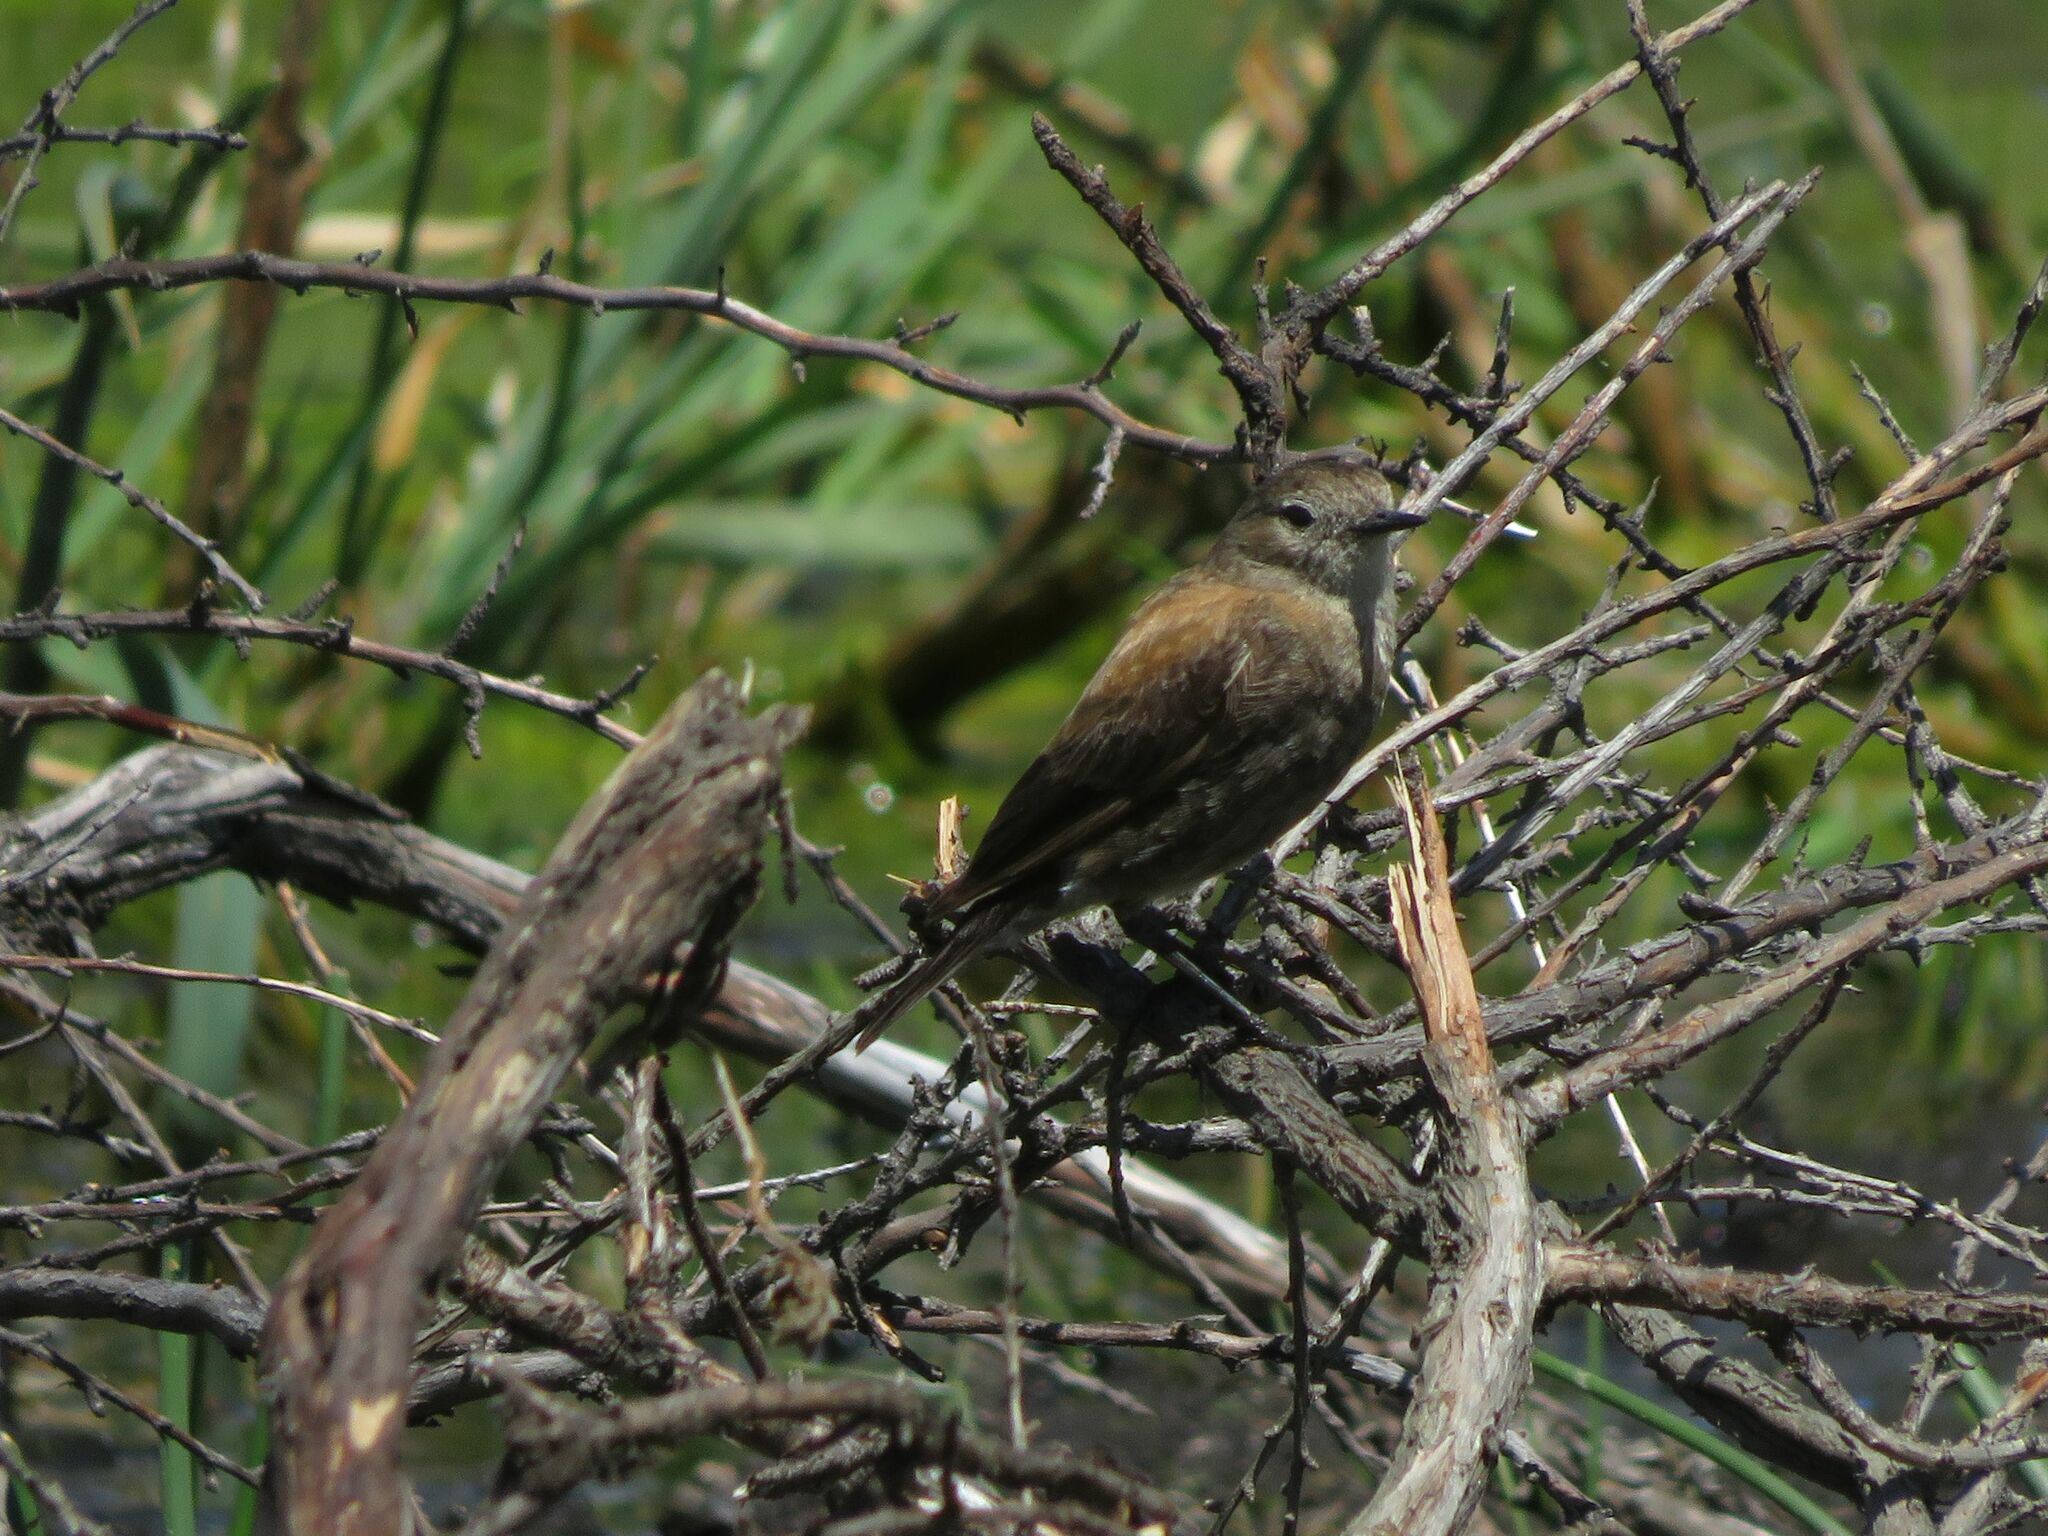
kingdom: Animalia
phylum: Chordata
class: Aves
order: Passeriformes
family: Tyrannidae
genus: Lessonia
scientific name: Lessonia rufa
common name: Austral negrito
